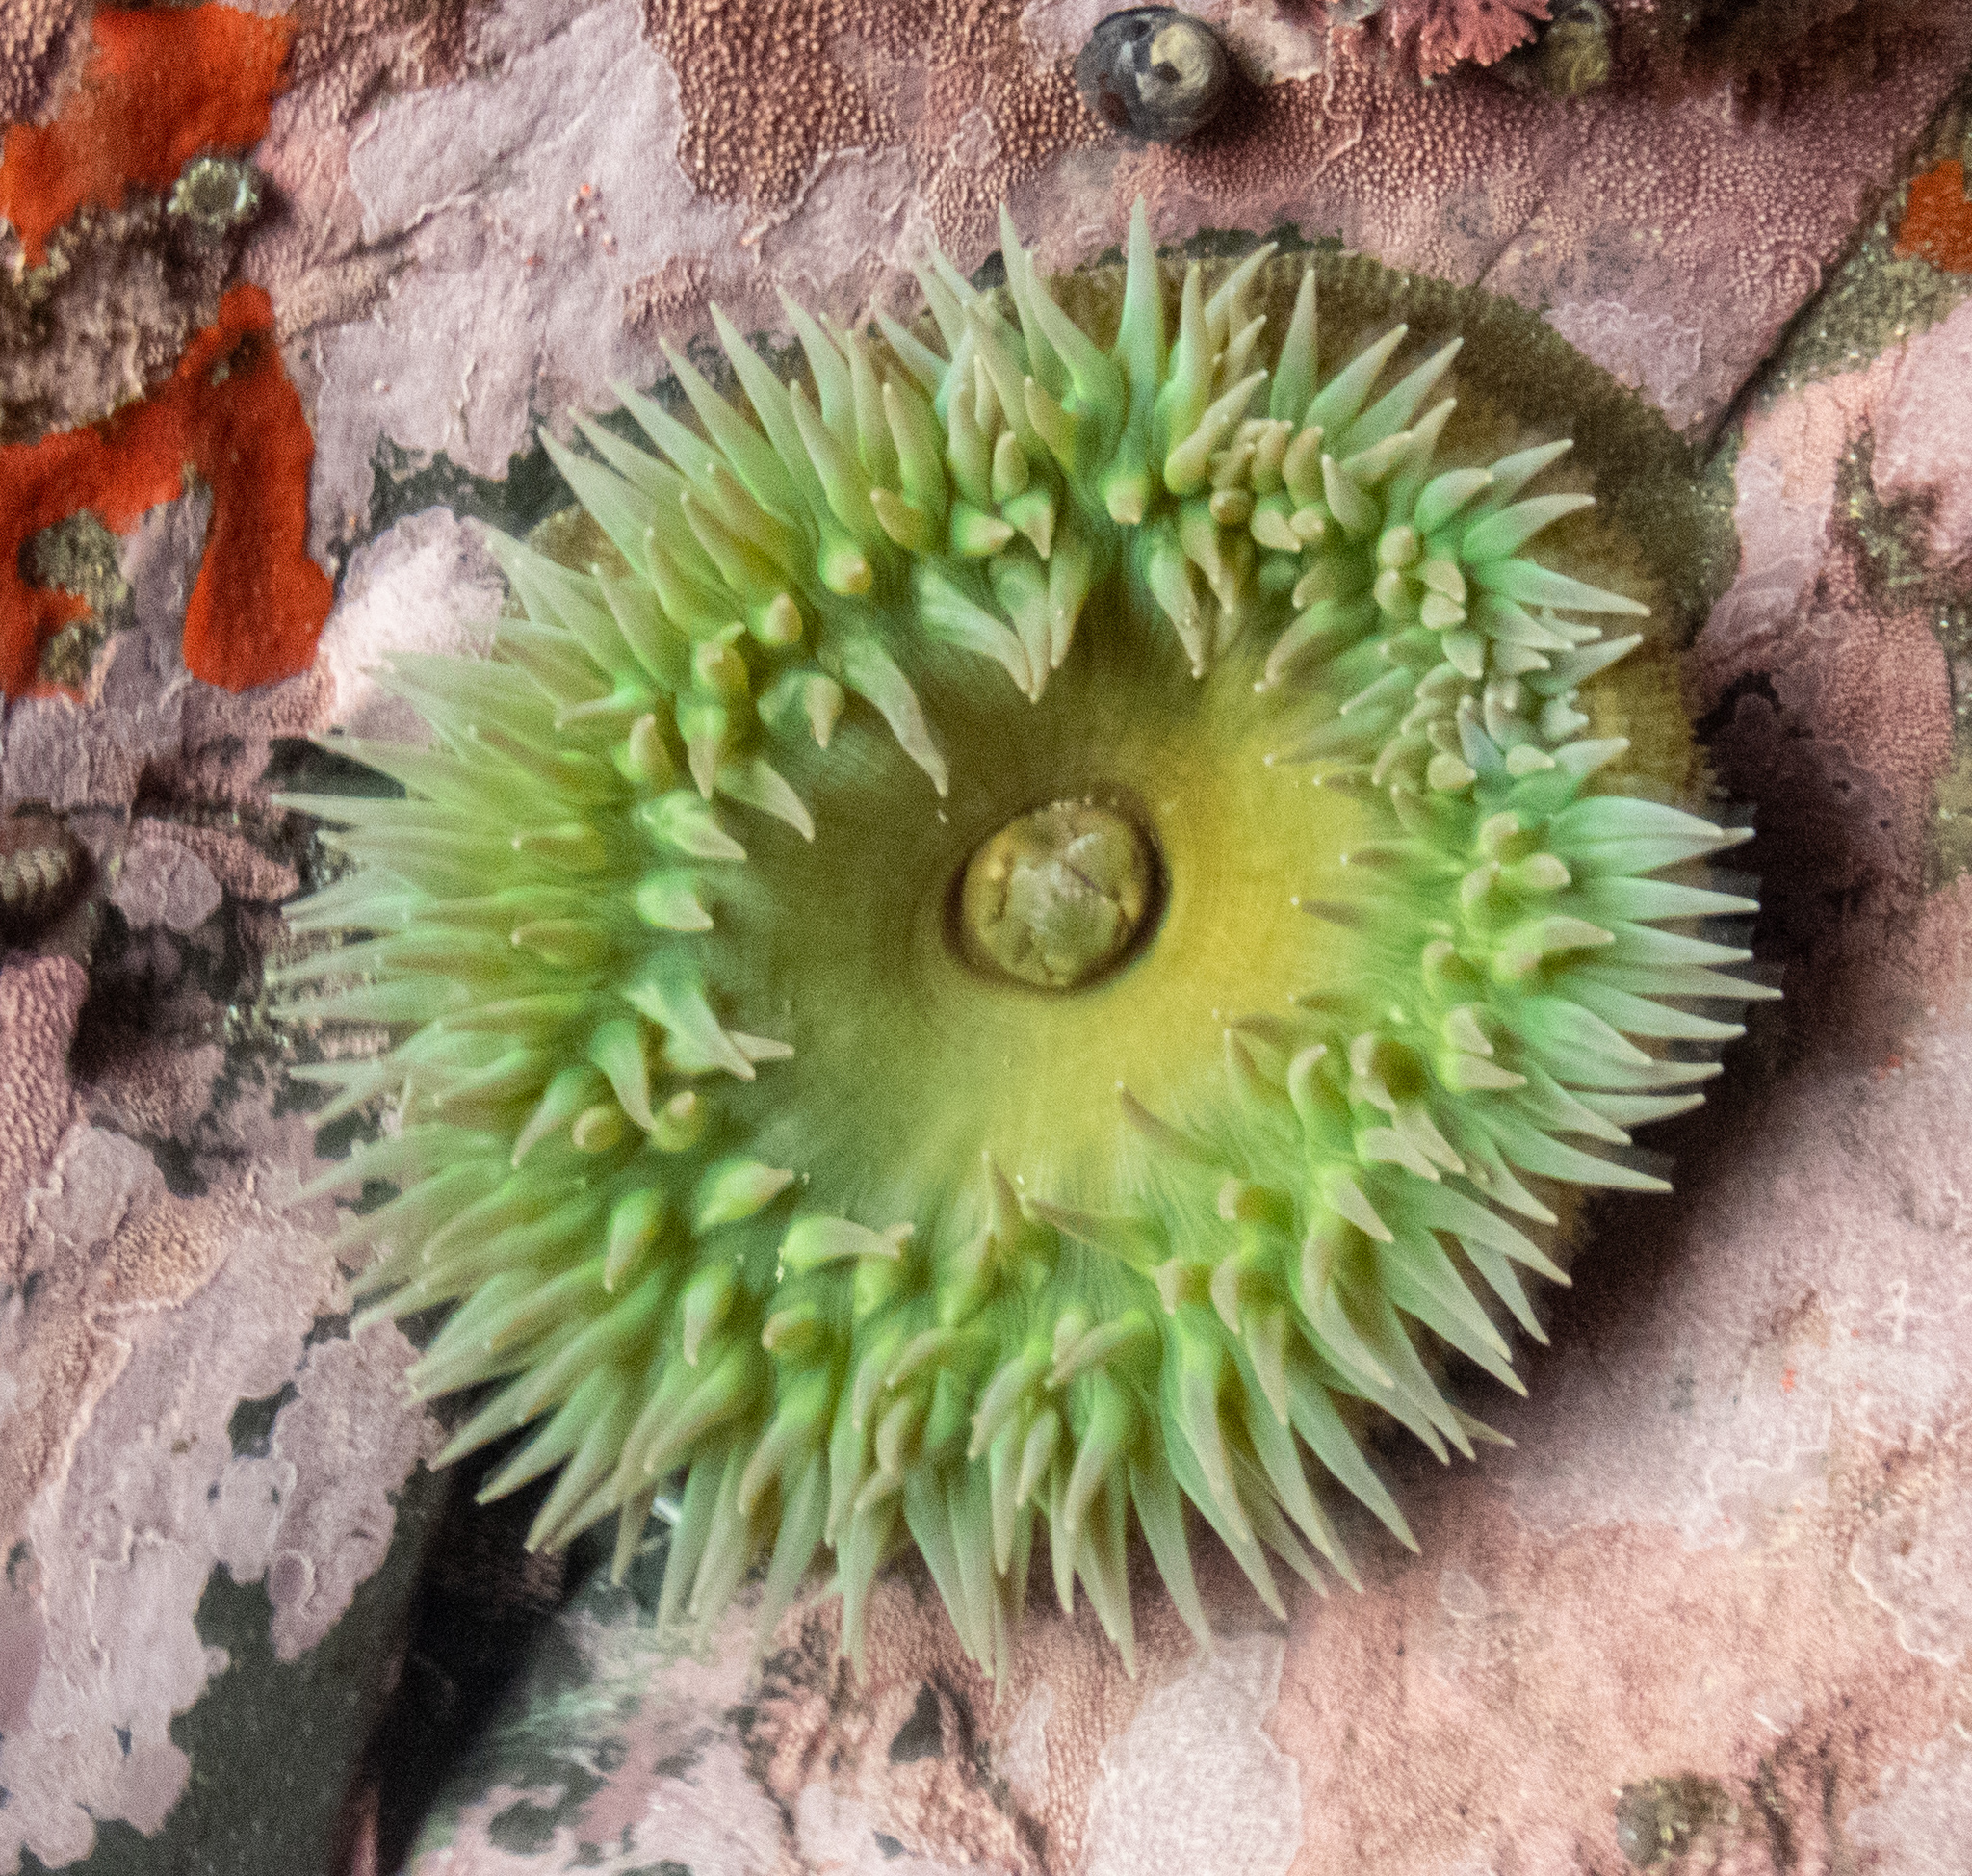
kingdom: Animalia
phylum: Cnidaria
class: Anthozoa
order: Actiniaria
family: Actiniidae
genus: Anthopleura
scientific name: Anthopleura xanthogrammica
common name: Giant green anemone
